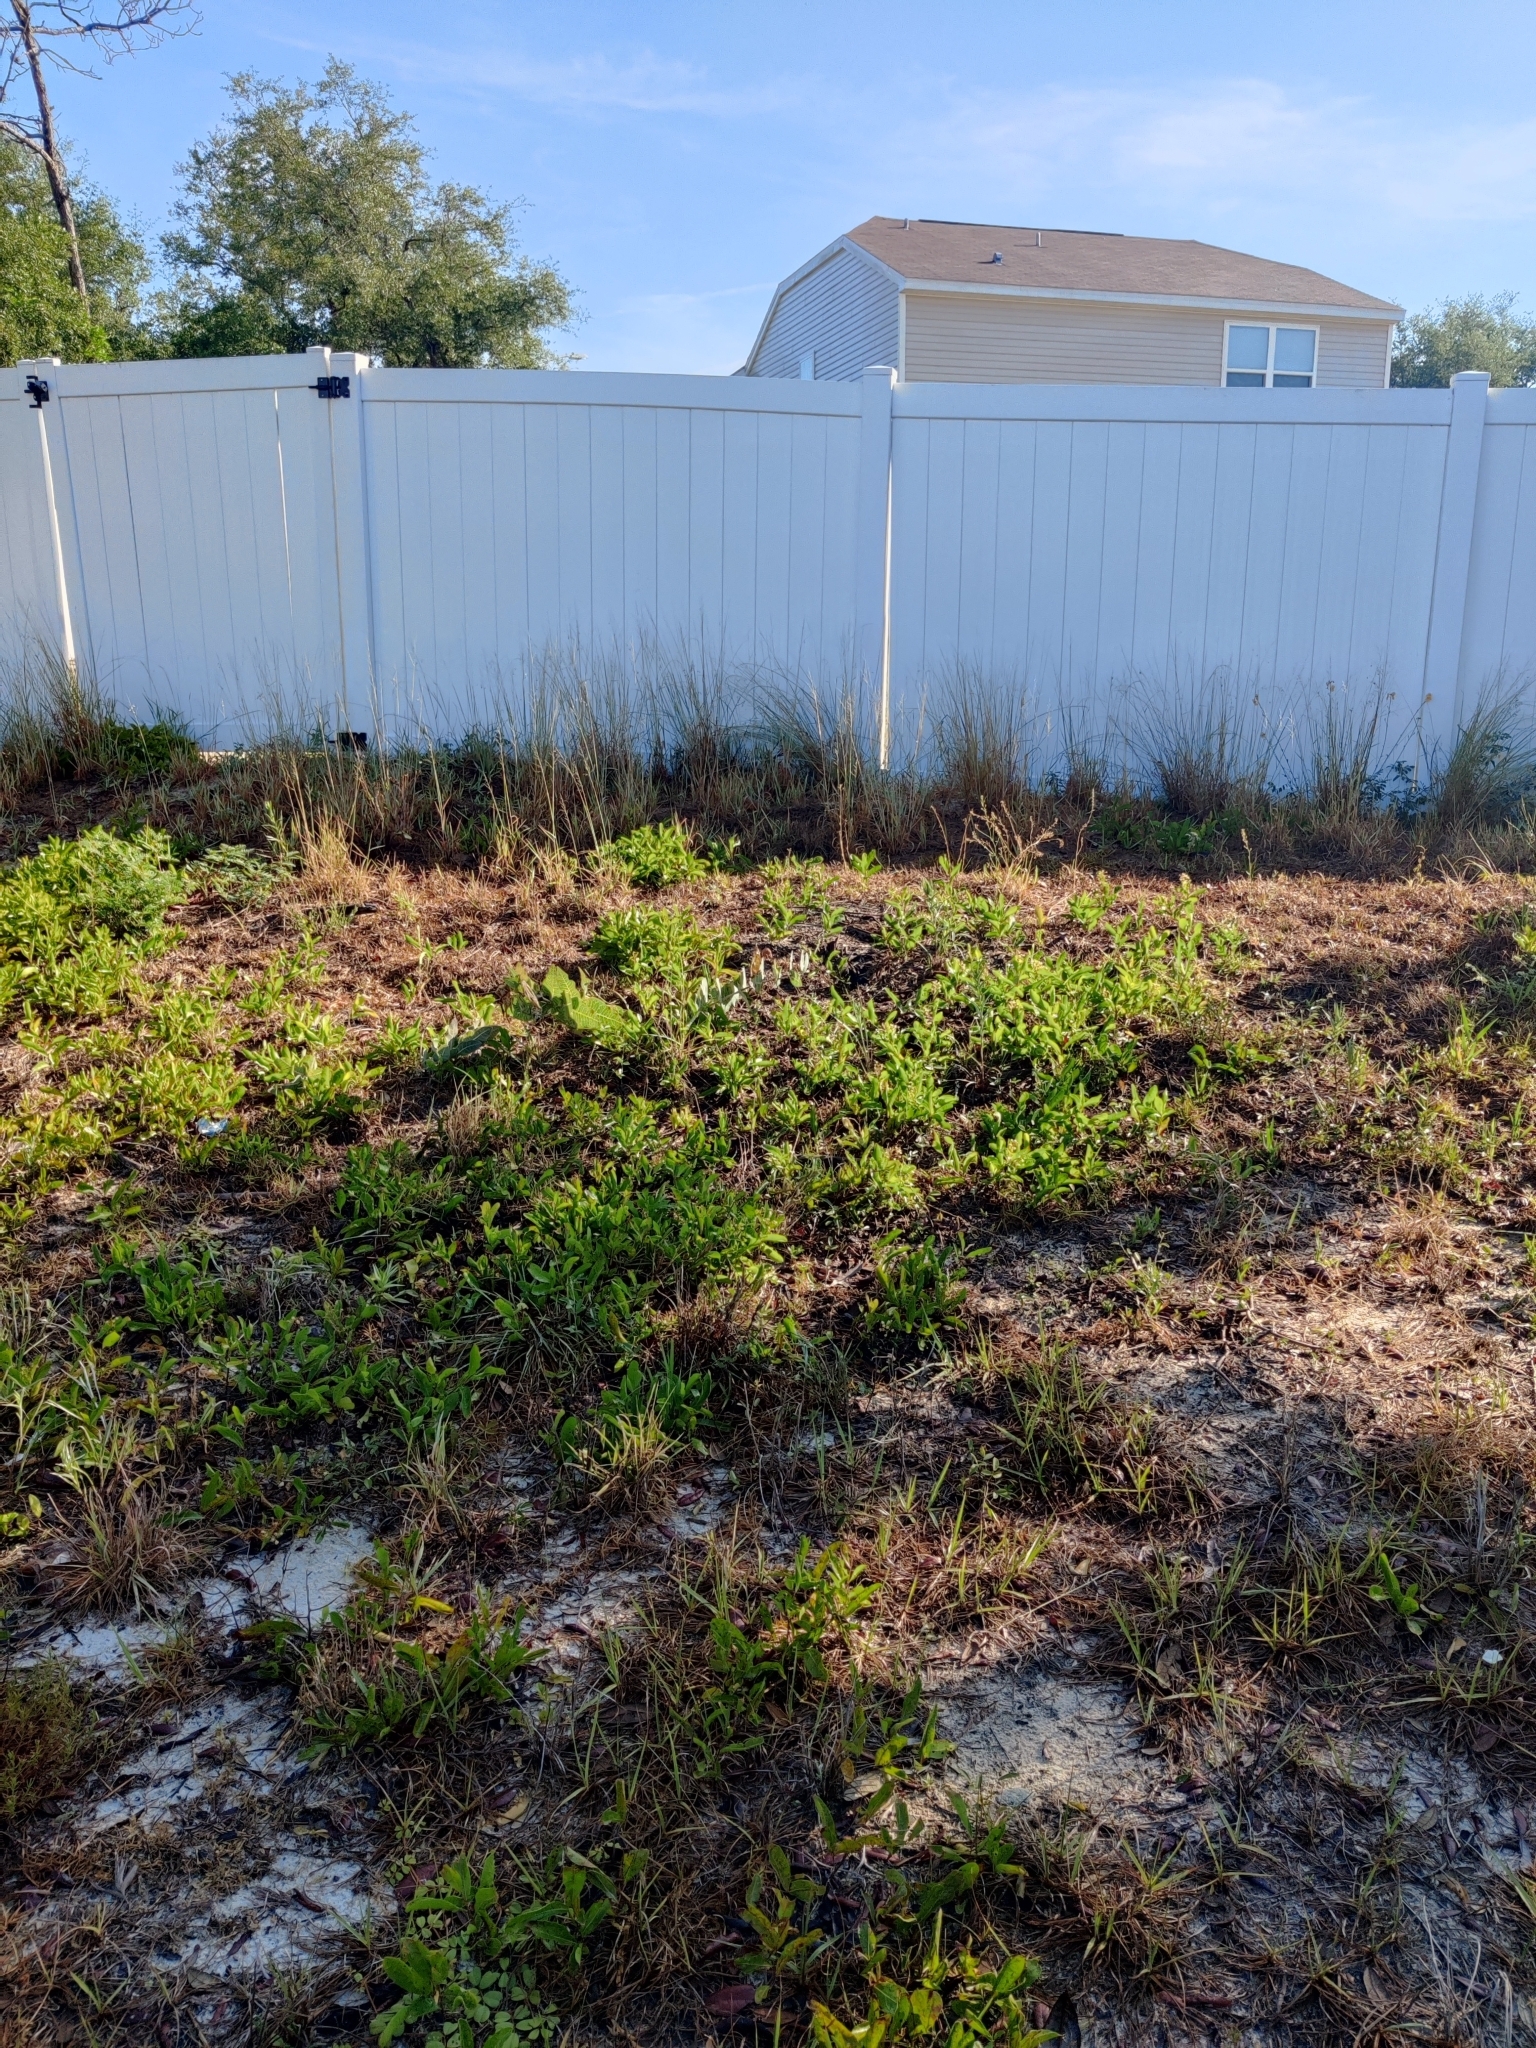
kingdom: Plantae
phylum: Tracheophyta
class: Magnoliopsida
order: Gentianales
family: Apocynaceae
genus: Asclepias
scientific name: Asclepias humistrata
